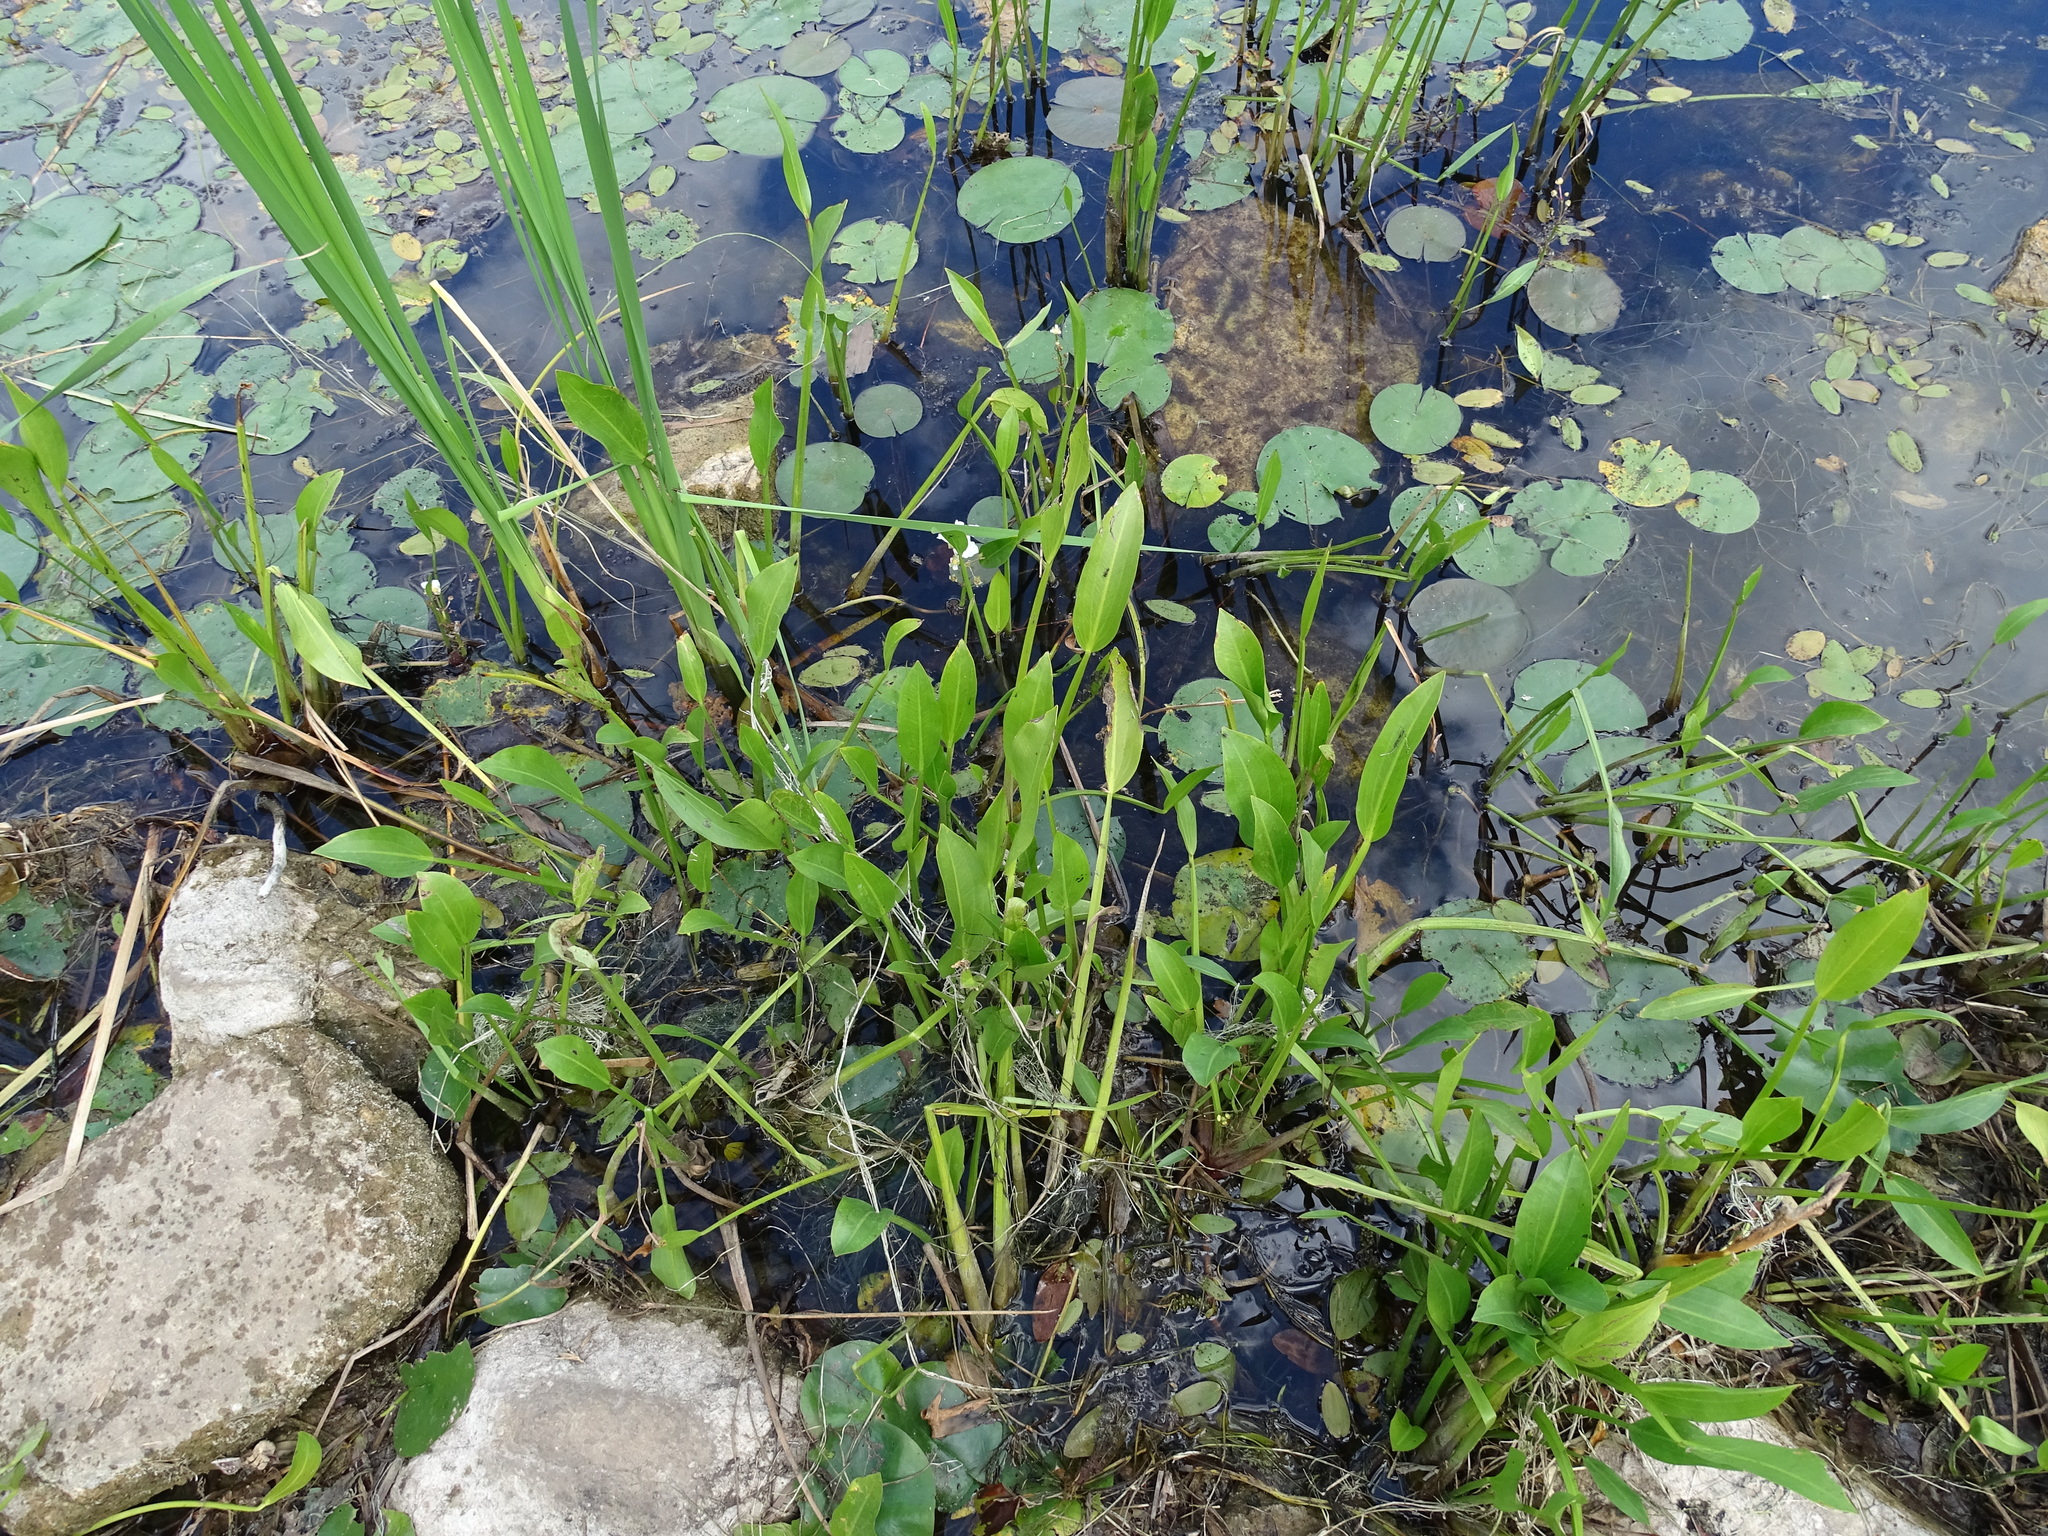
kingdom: Plantae
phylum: Tracheophyta
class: Liliopsida
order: Alismatales
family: Alismataceae
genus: Sagittaria
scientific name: Sagittaria rigida
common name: Canadian arrowhead
